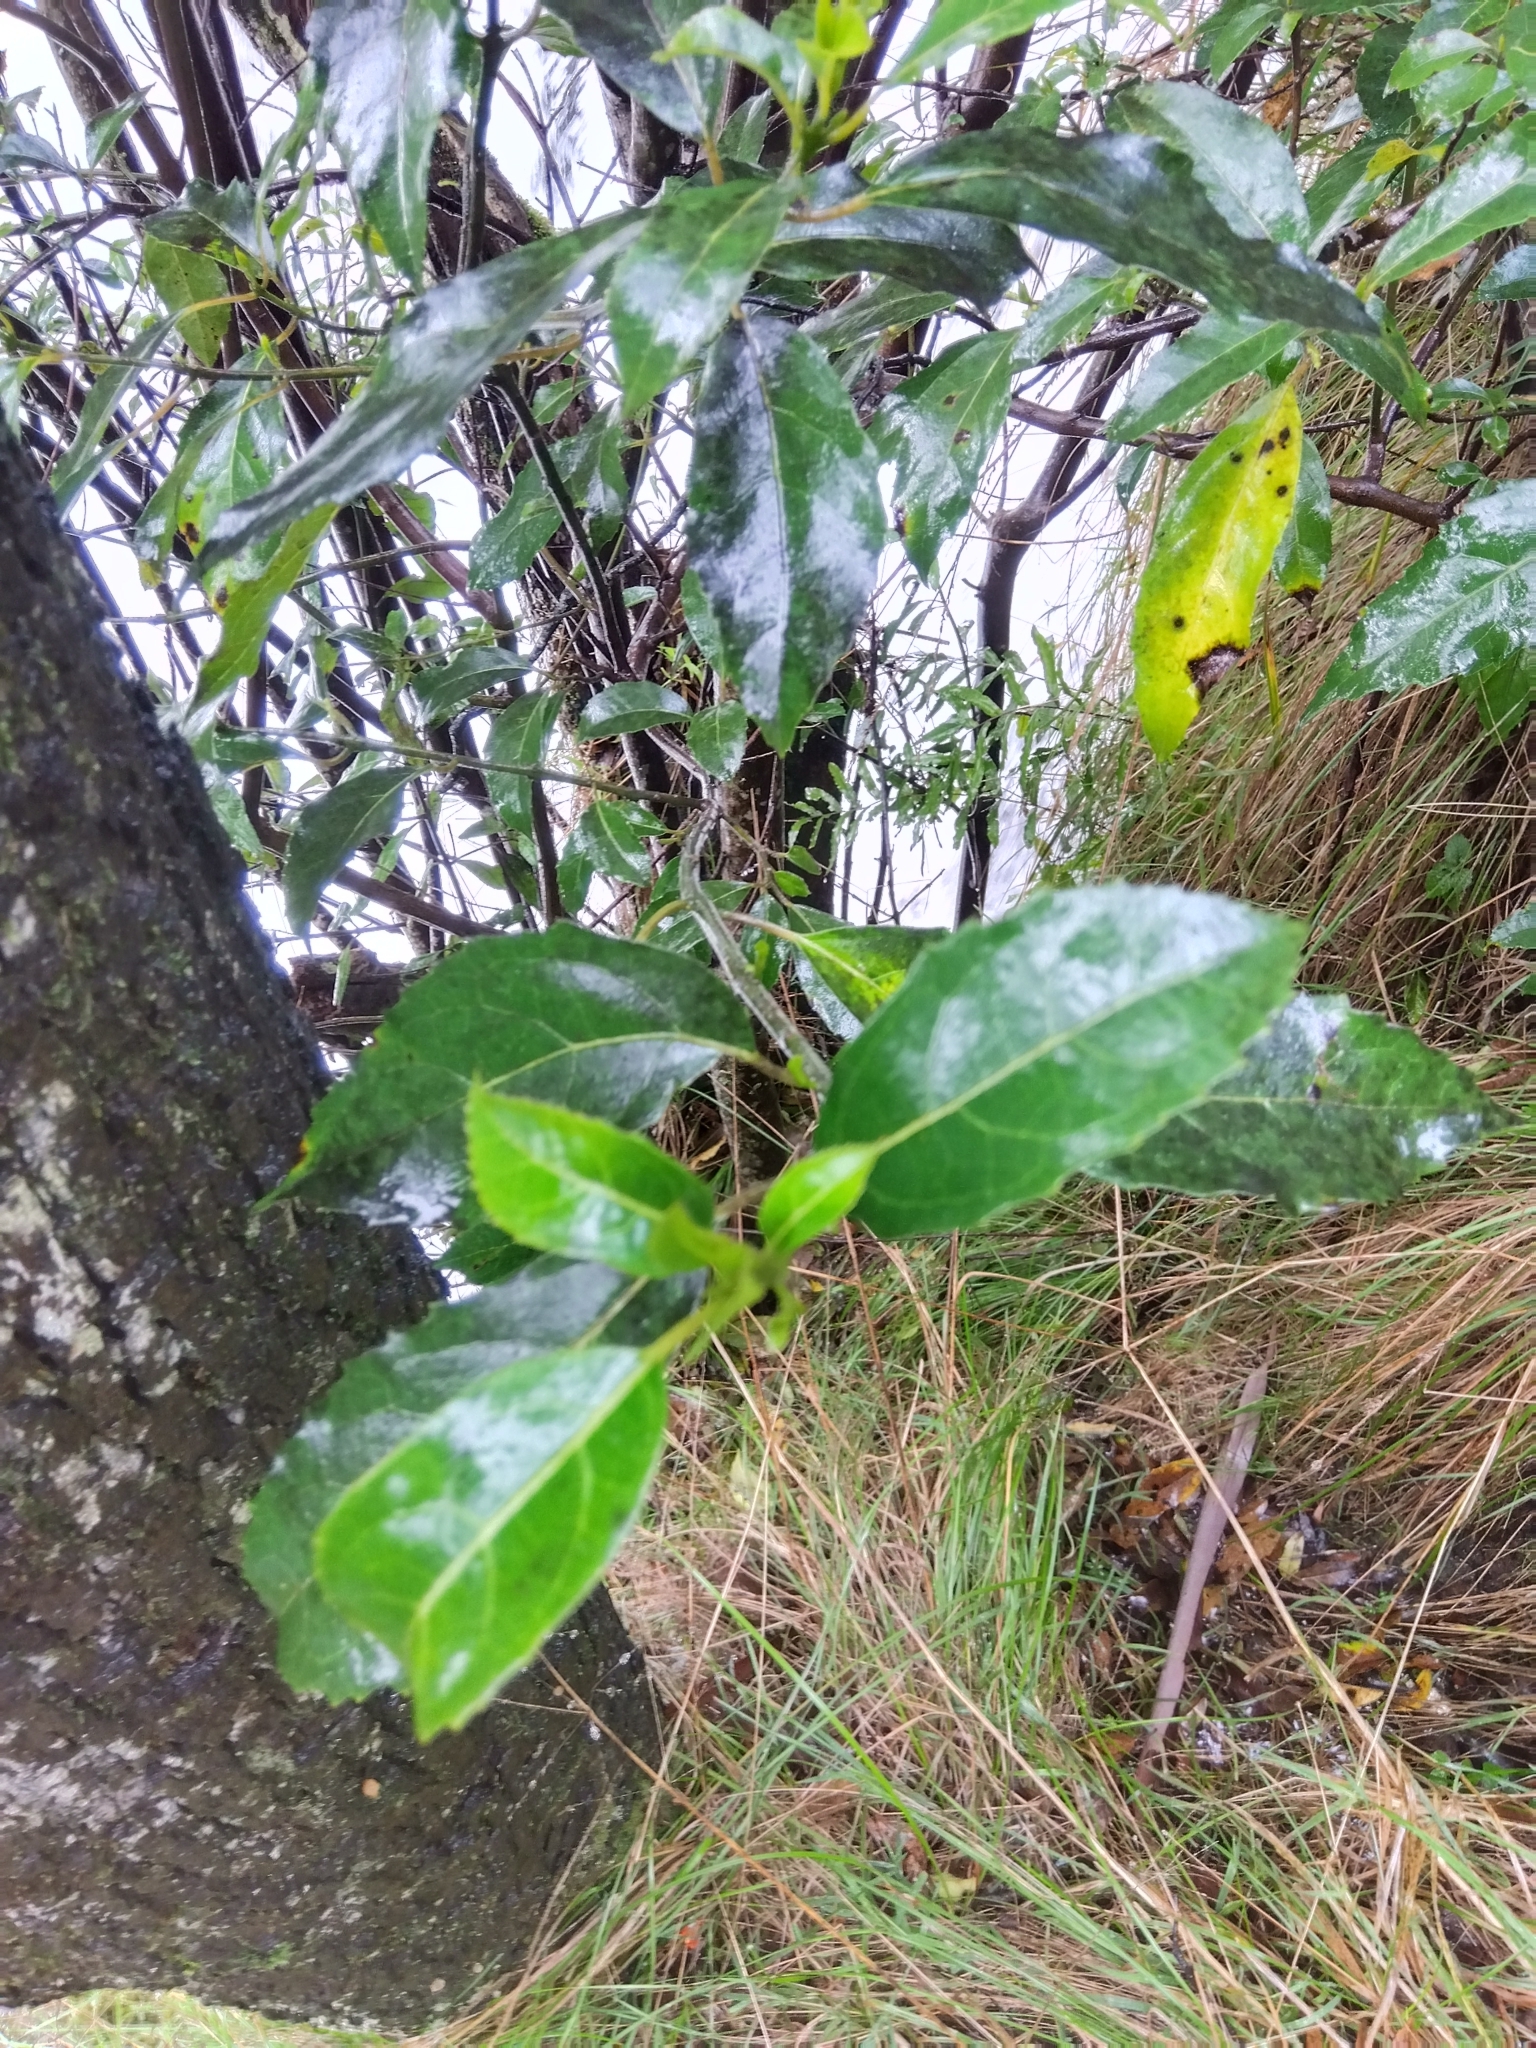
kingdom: Plantae
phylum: Tracheophyta
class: Magnoliopsida
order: Laurales
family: Monimiaceae
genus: Hedycarya
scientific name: Hedycarya angustifolia
